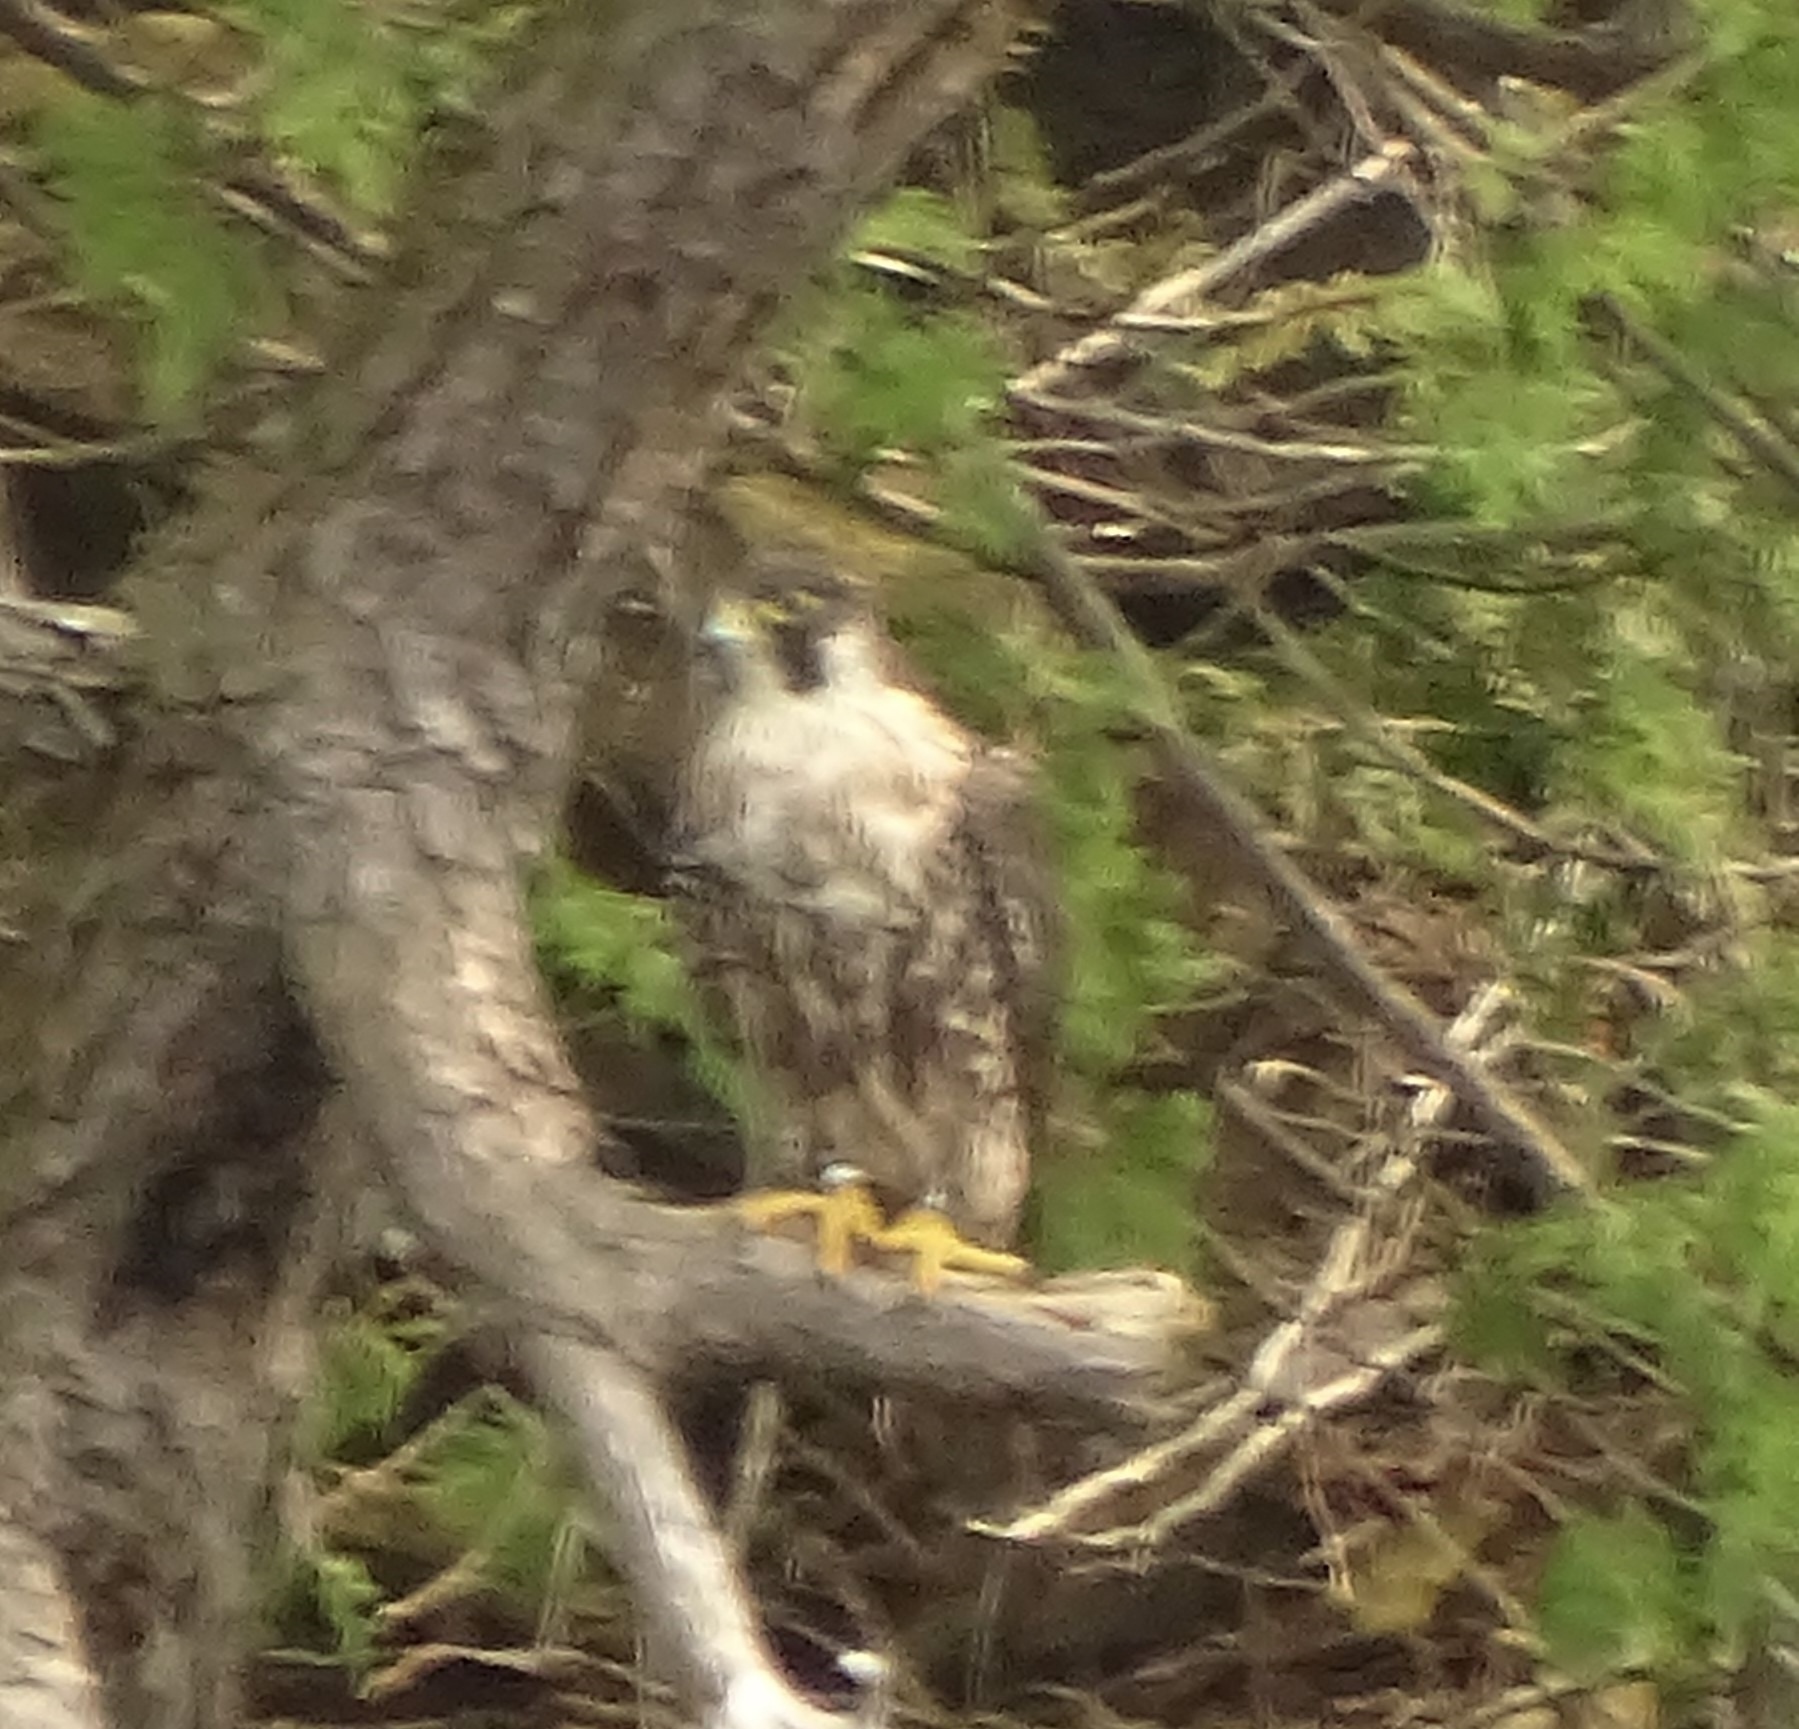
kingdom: Animalia
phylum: Chordata
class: Aves
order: Falconiformes
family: Falconidae
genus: Falco
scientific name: Falco peregrinus
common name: Peregrine falcon
